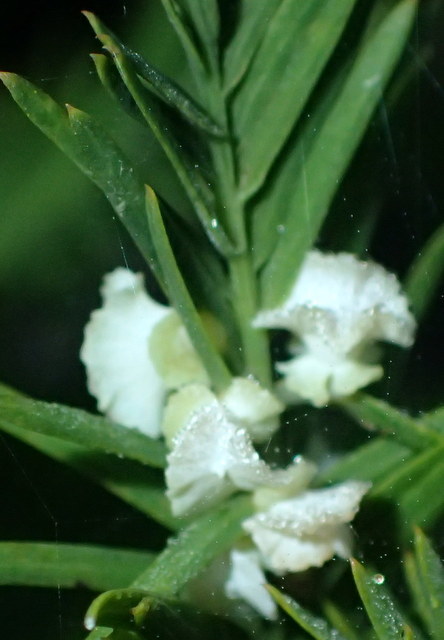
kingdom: Animalia
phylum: Arthropoda
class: Insecta
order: Diptera
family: Cecidomyiidae
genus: Taxodiomyia
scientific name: Taxodiomyia cupressi
